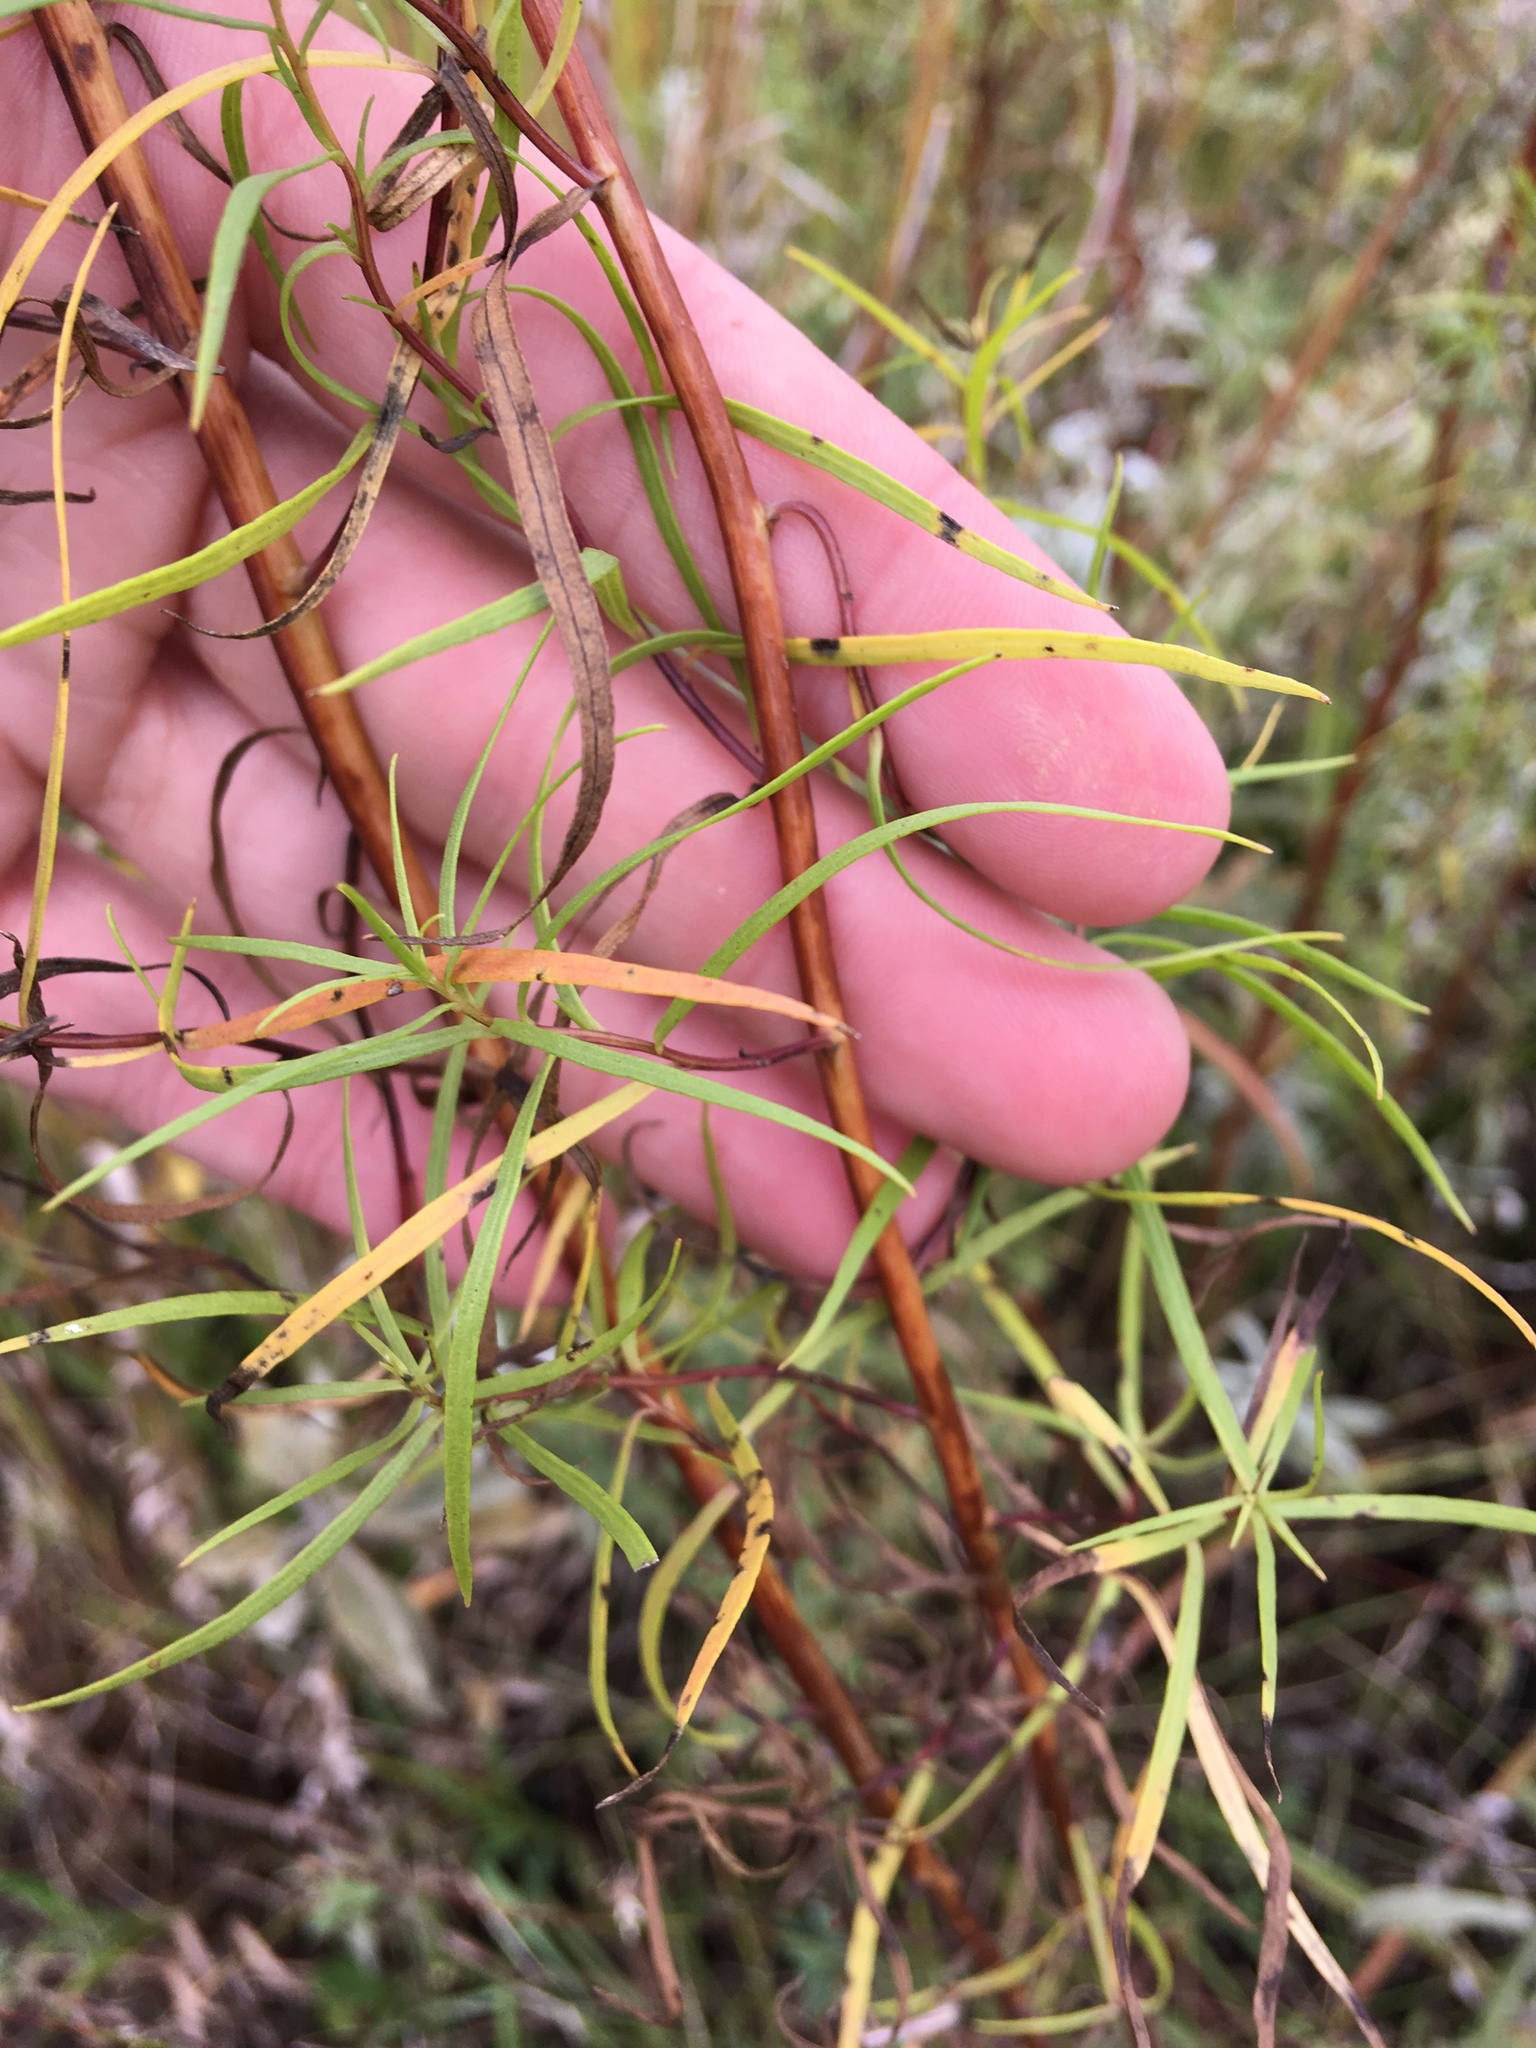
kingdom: Plantae
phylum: Tracheophyta
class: Magnoliopsida
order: Asterales
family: Asteraceae
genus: Artemisia
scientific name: Artemisia dracunculus
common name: Tarragon
